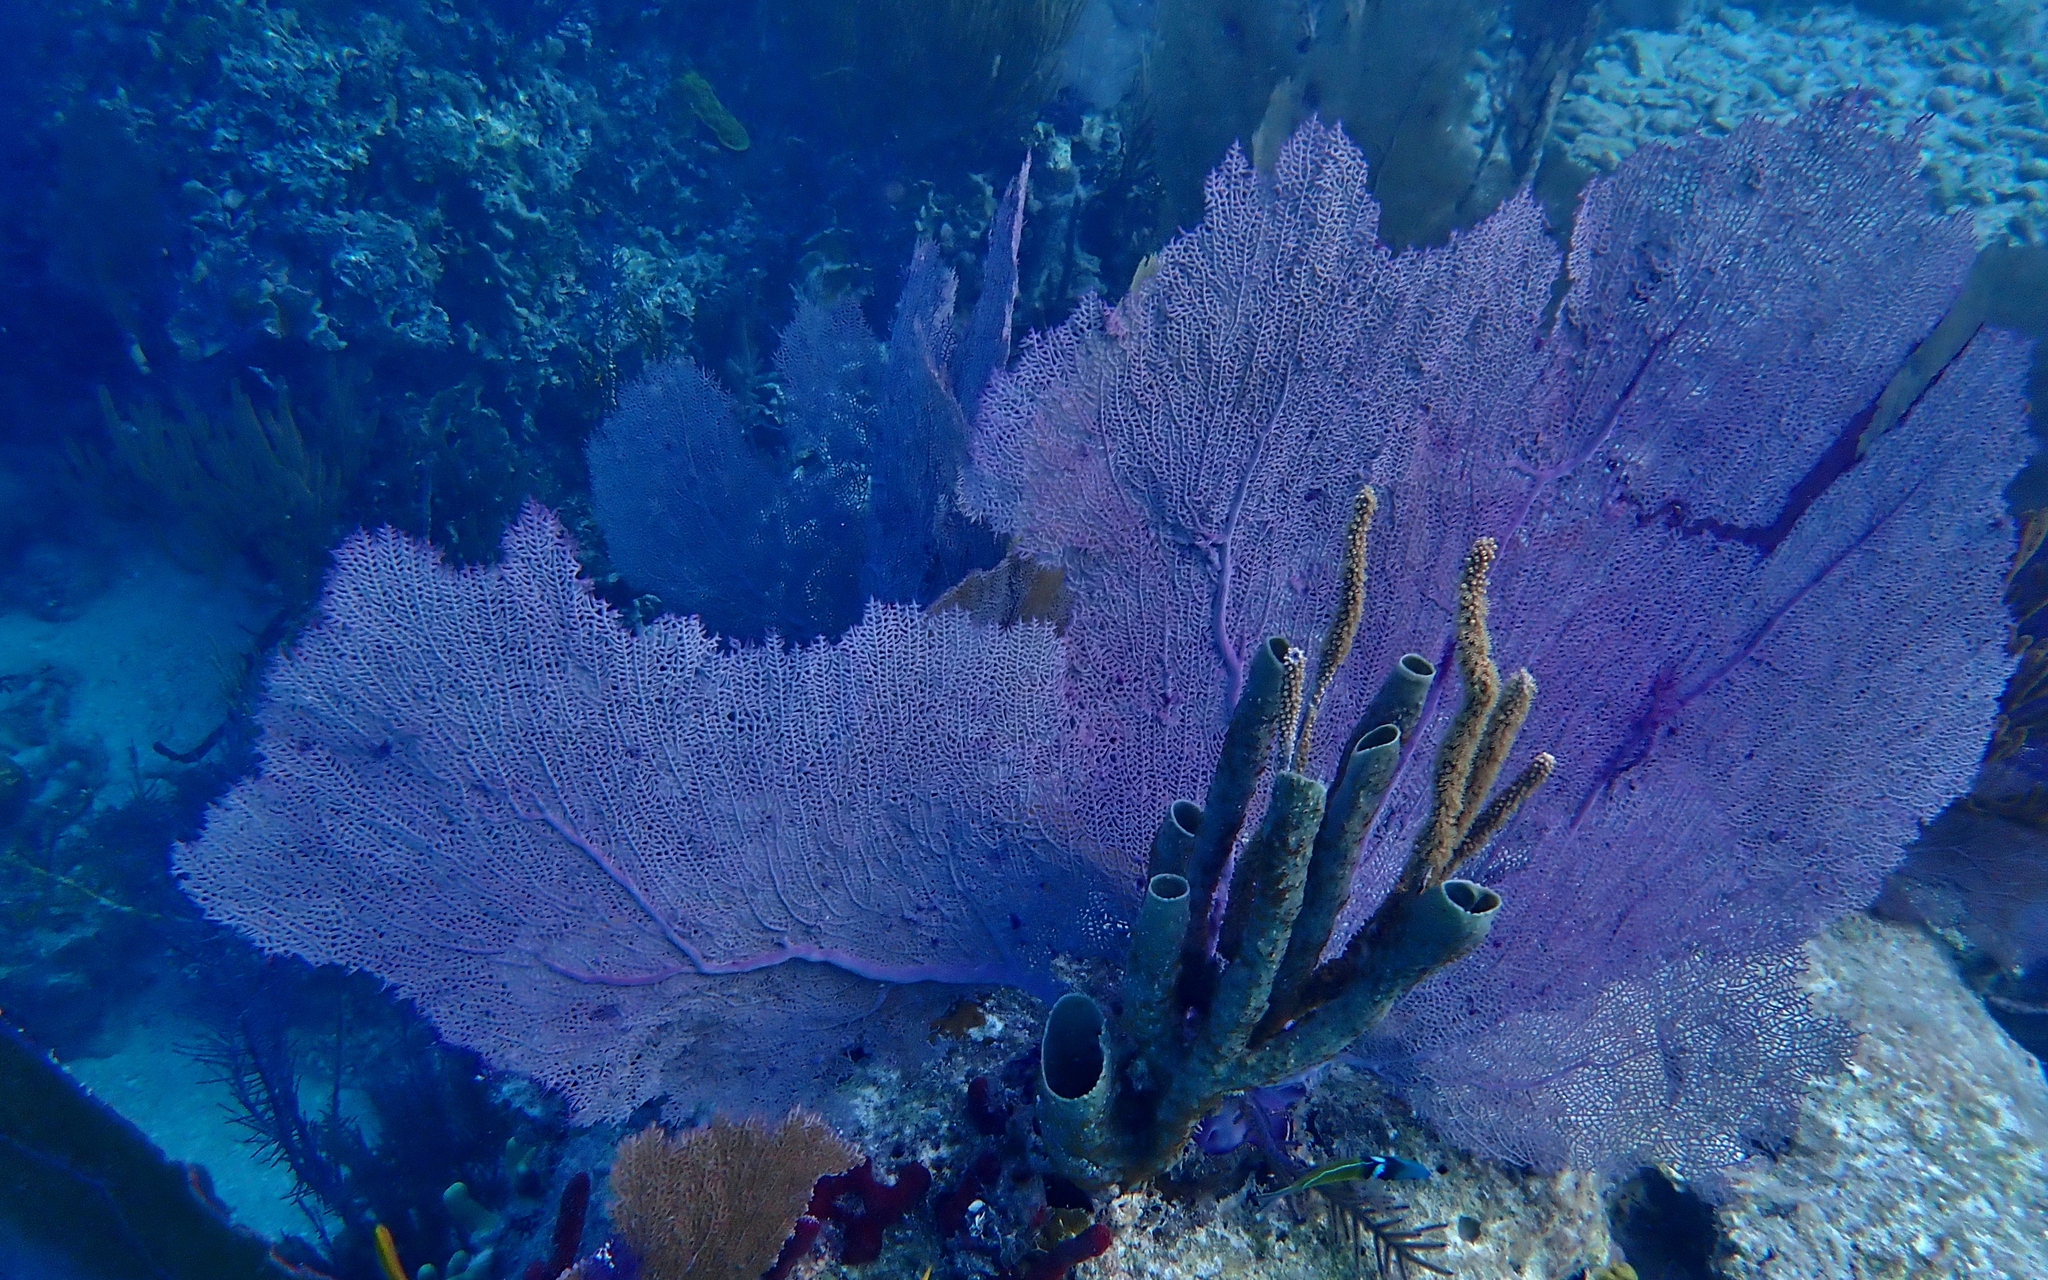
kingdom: Animalia
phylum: Porifera
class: Demospongiae
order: Haplosclerida
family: Callyspongiidae
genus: Callyspongia
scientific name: Callyspongia aculeata
